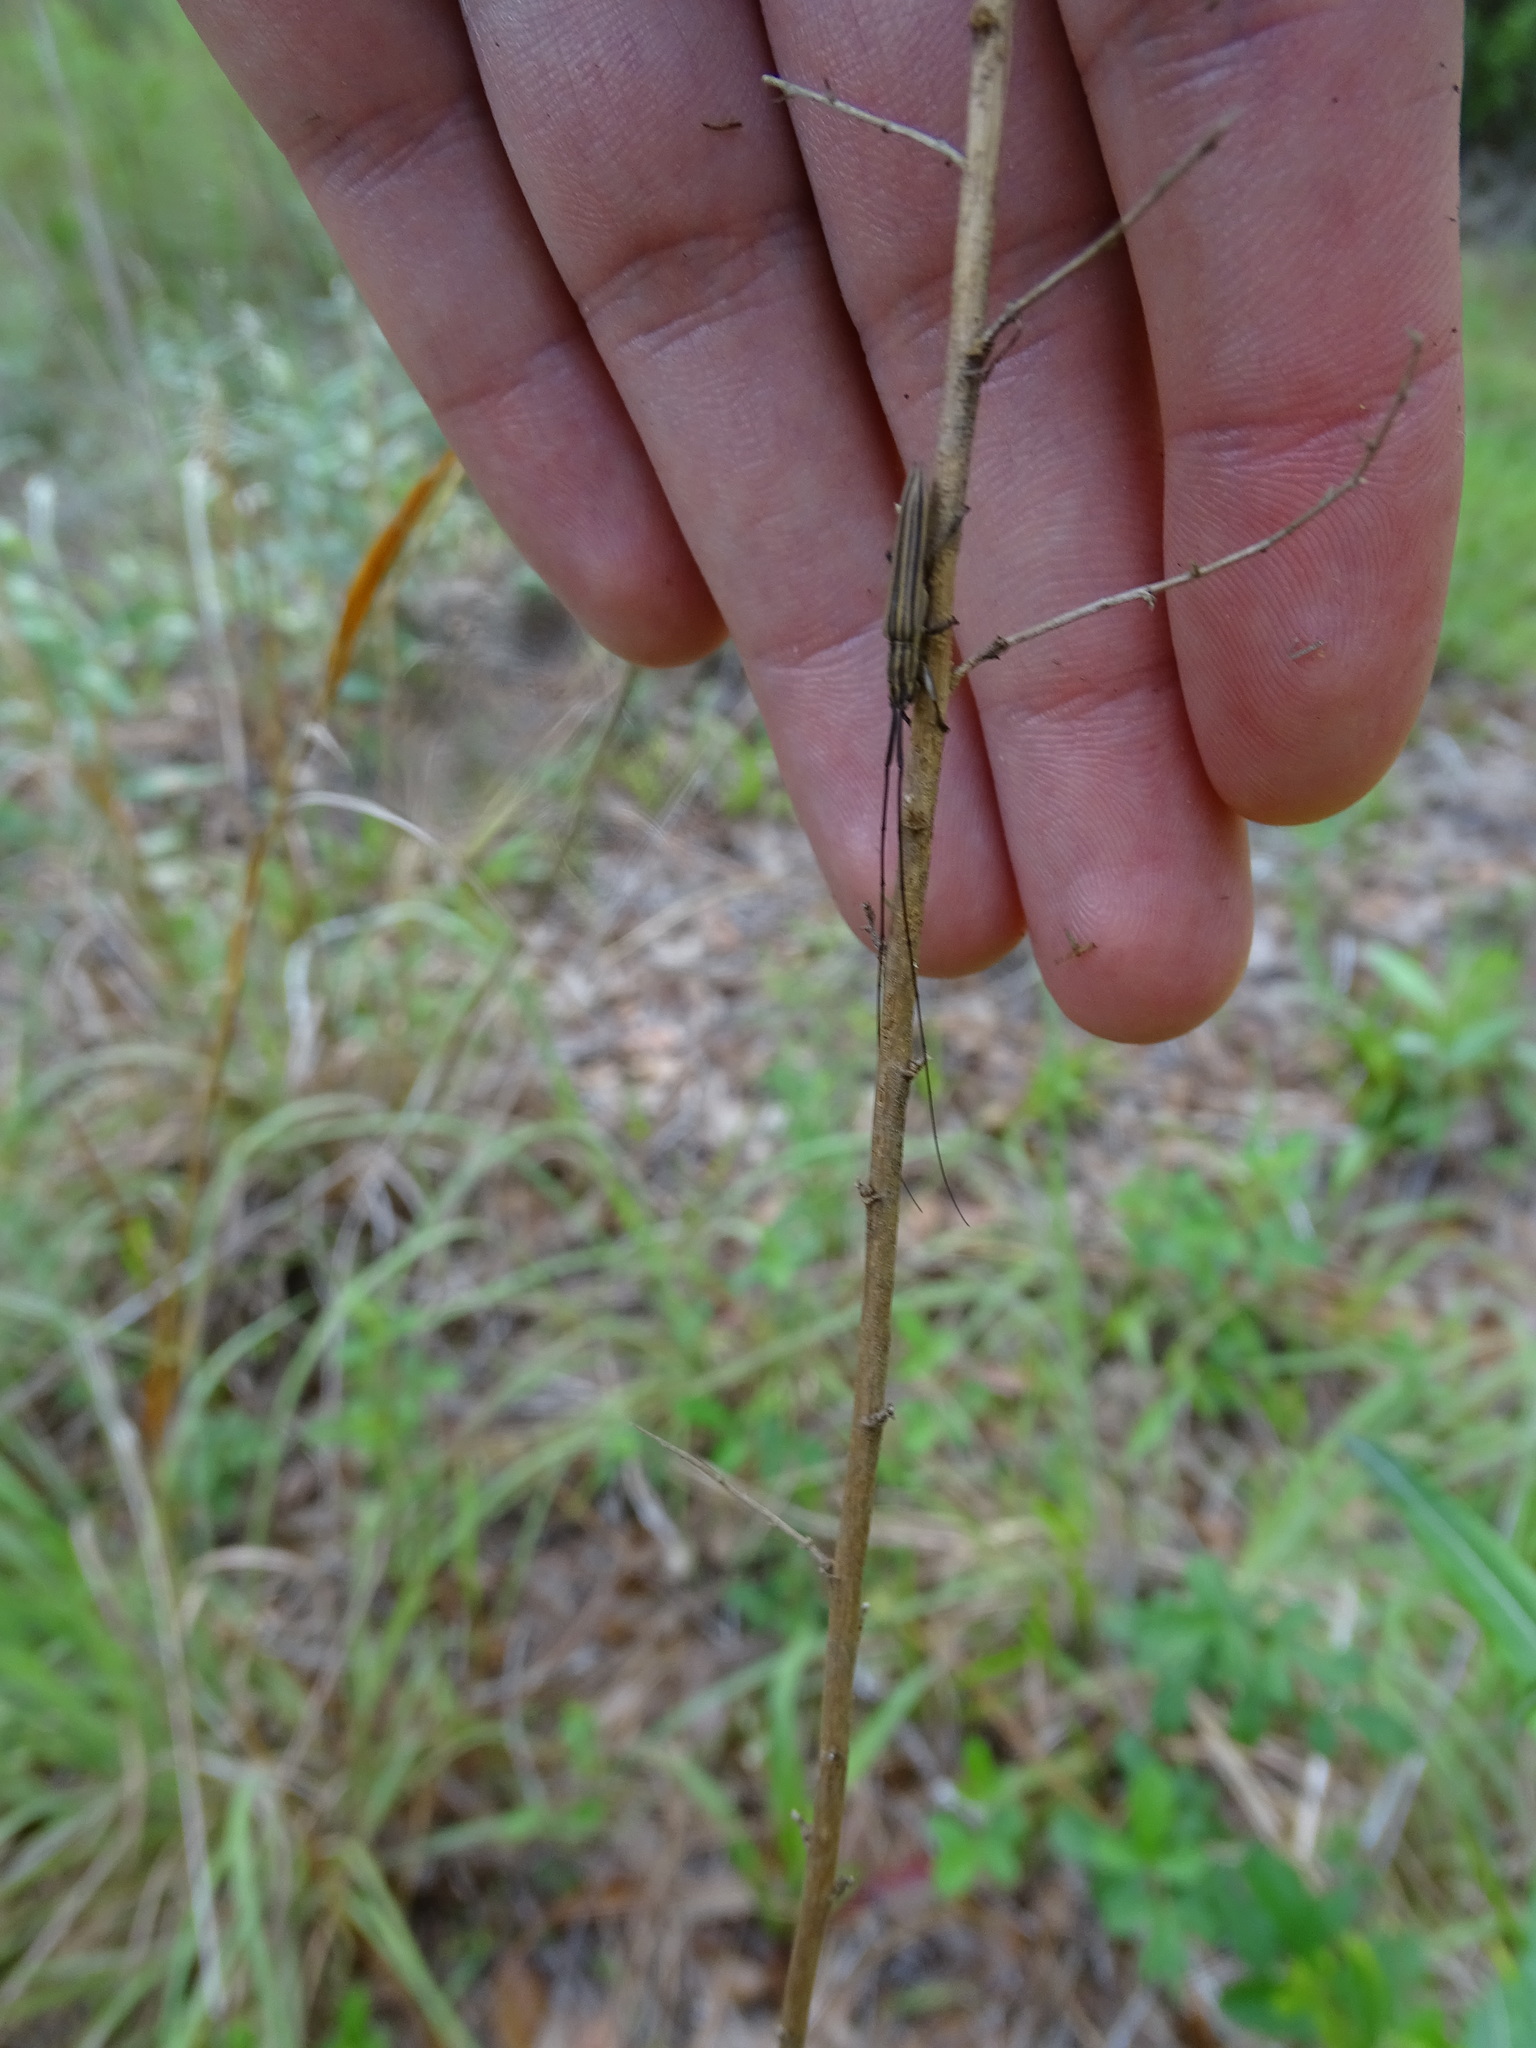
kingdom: Animalia
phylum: Arthropoda
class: Insecta
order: Coleoptera
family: Cerambycidae
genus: Hippopsis
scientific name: Hippopsis
